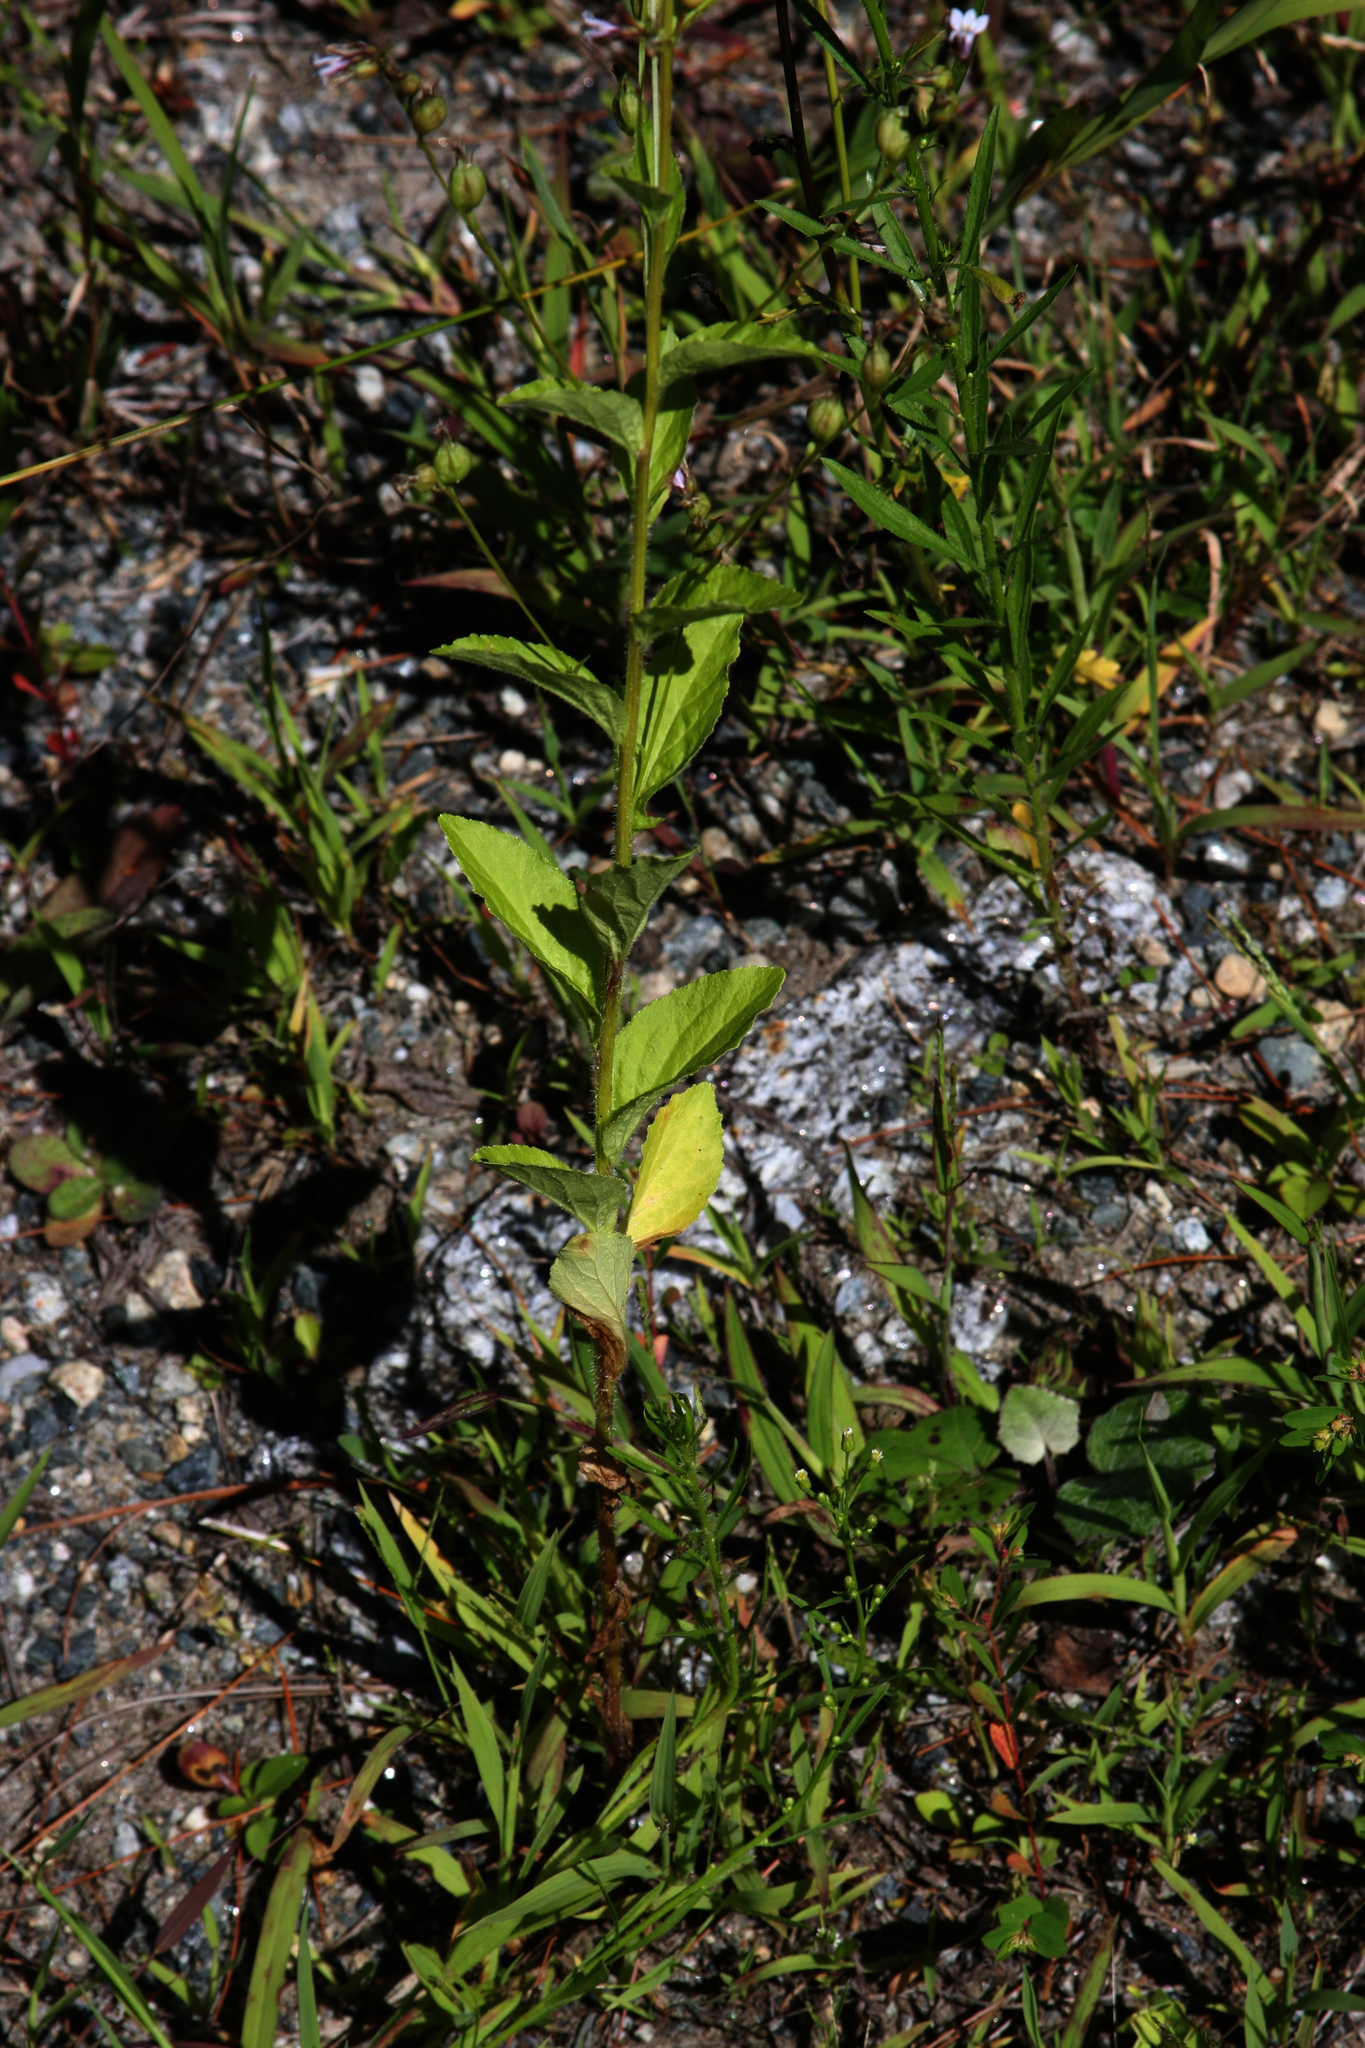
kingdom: Plantae
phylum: Tracheophyta
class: Magnoliopsida
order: Asterales
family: Campanulaceae
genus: Lobelia
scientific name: Lobelia inflata
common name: Indian tobacco
